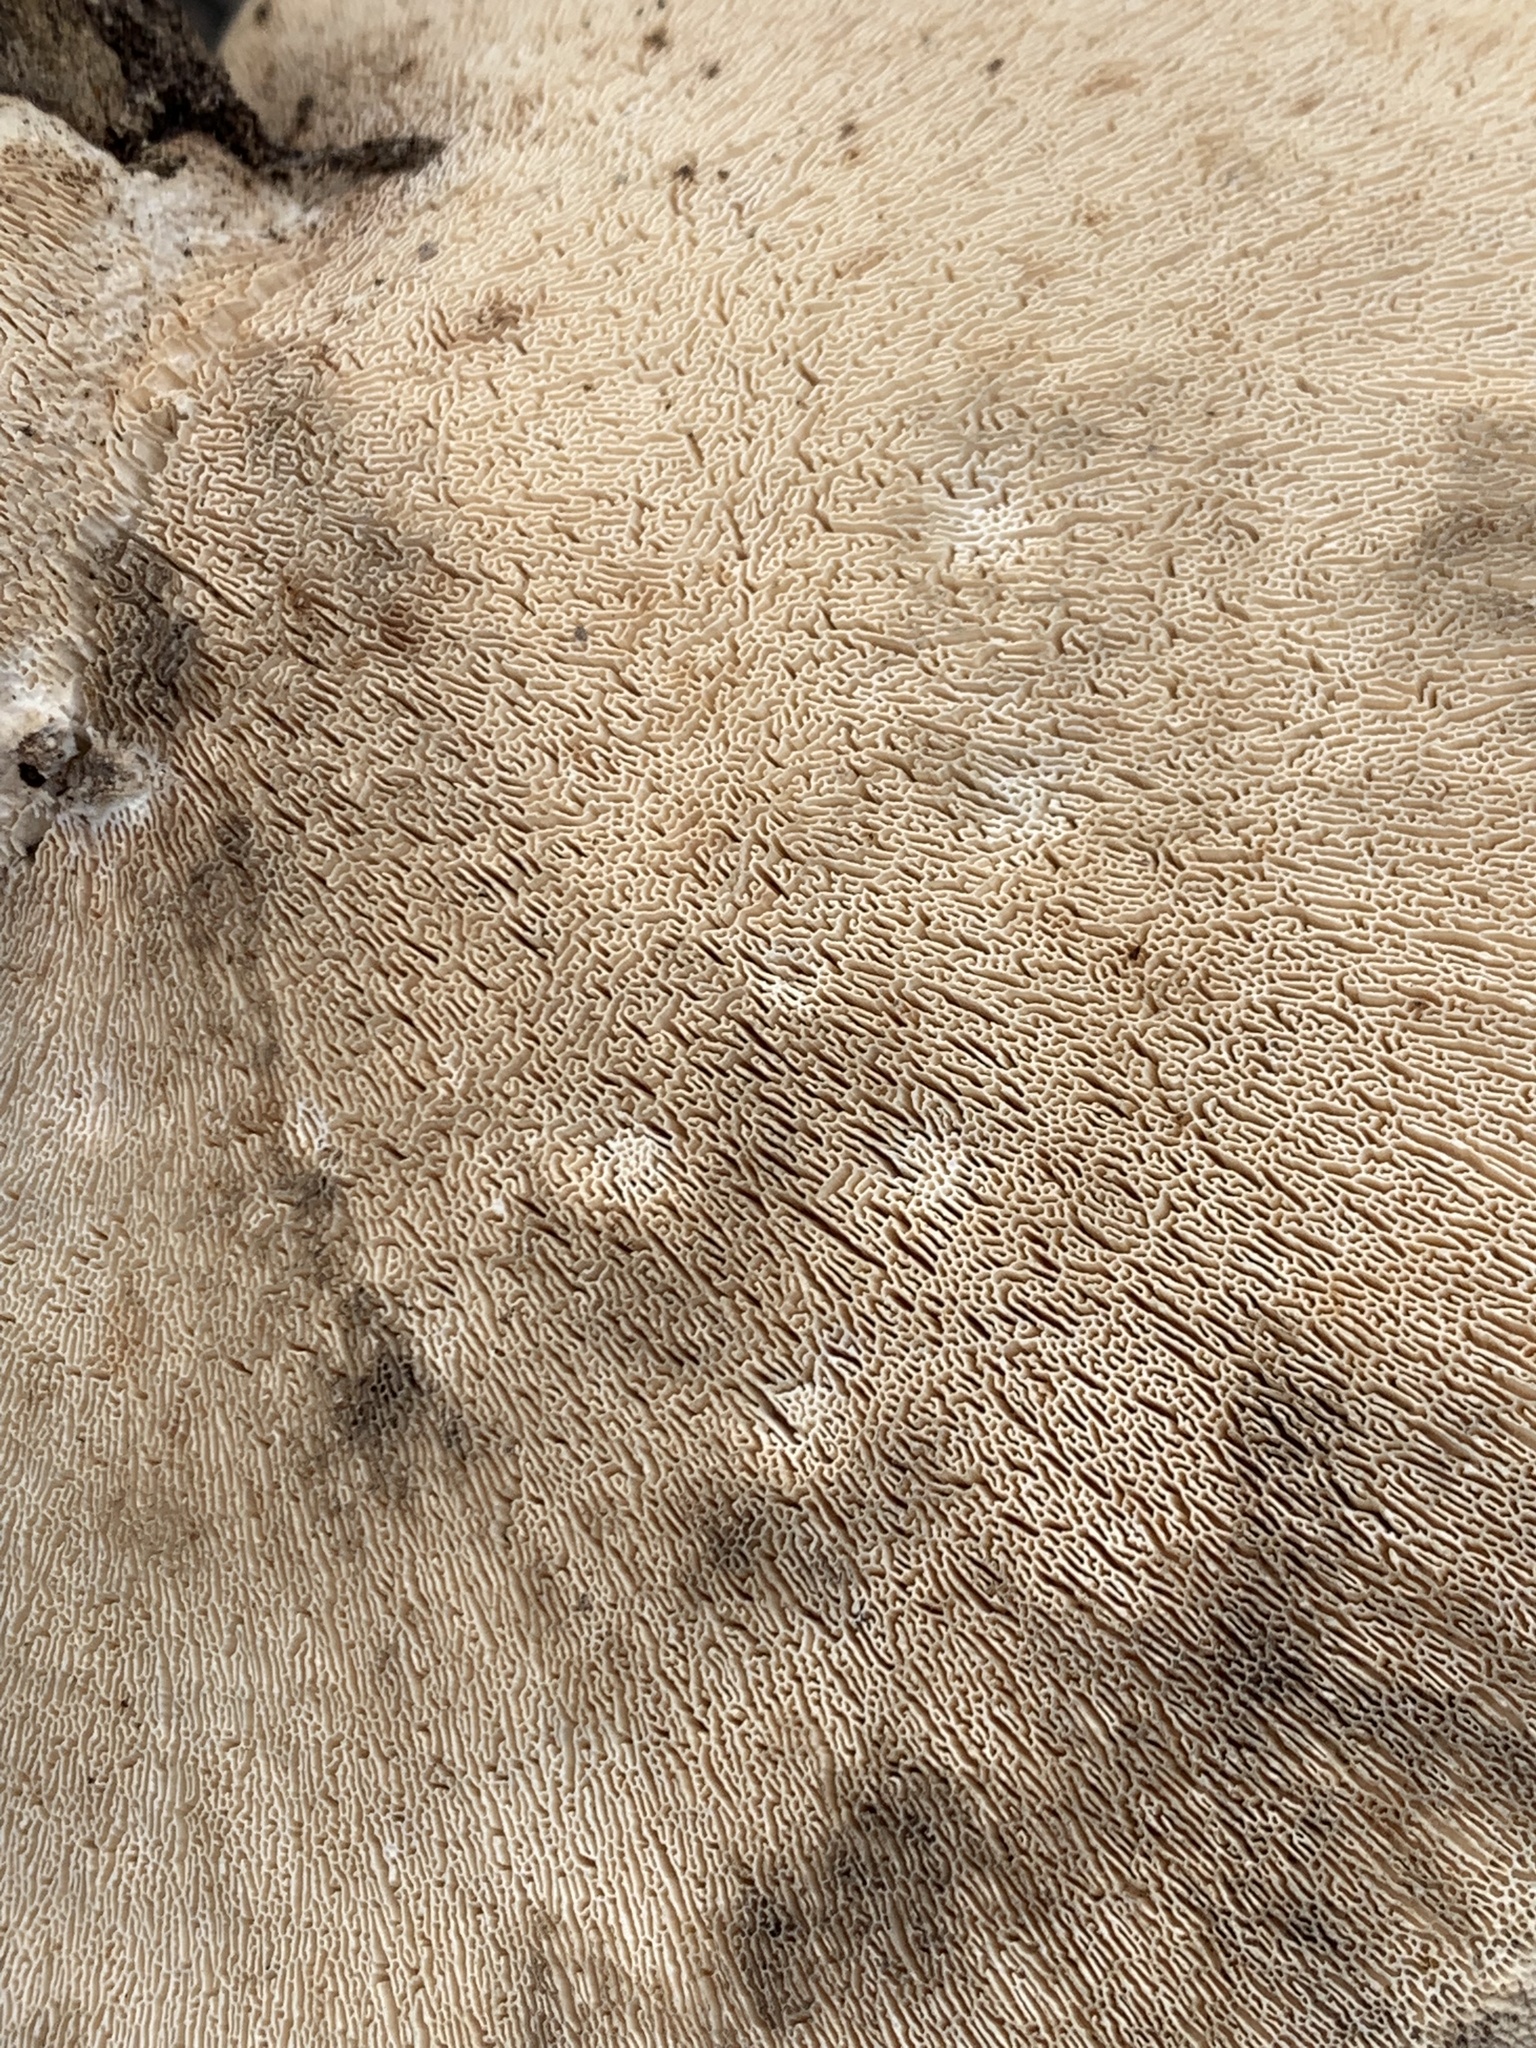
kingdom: Fungi
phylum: Basidiomycota
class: Agaricomycetes
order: Polyporales
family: Polyporaceae
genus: Trametes
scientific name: Trametes
